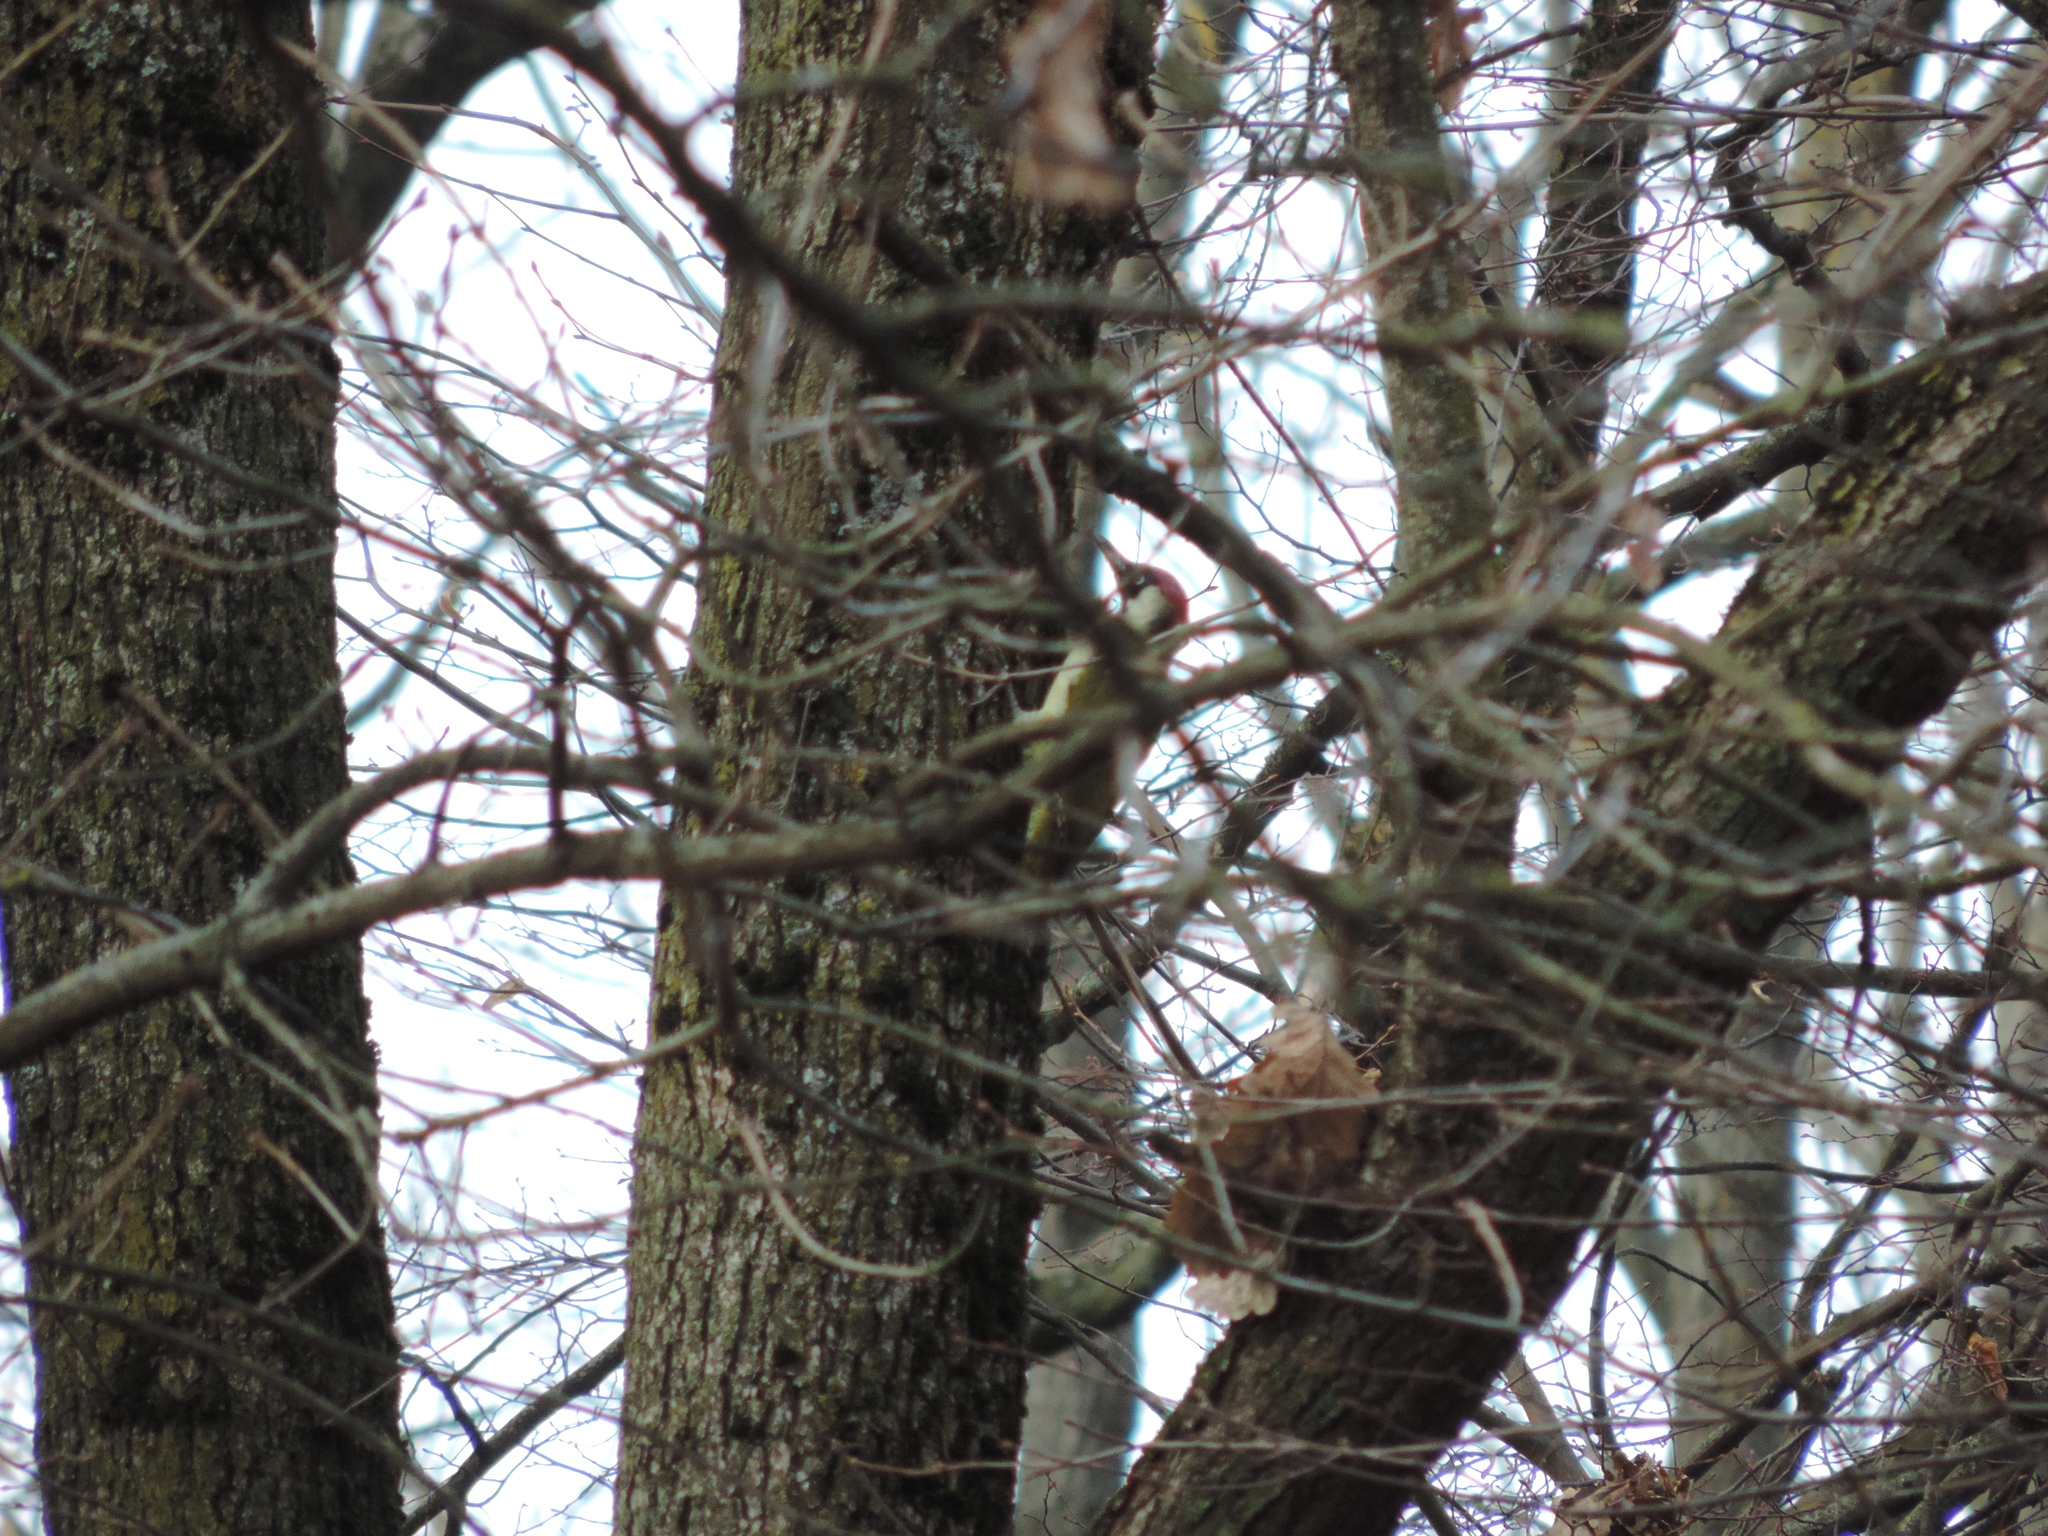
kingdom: Animalia
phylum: Chordata
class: Aves
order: Piciformes
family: Picidae
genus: Picus
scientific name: Picus viridis
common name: European green woodpecker
